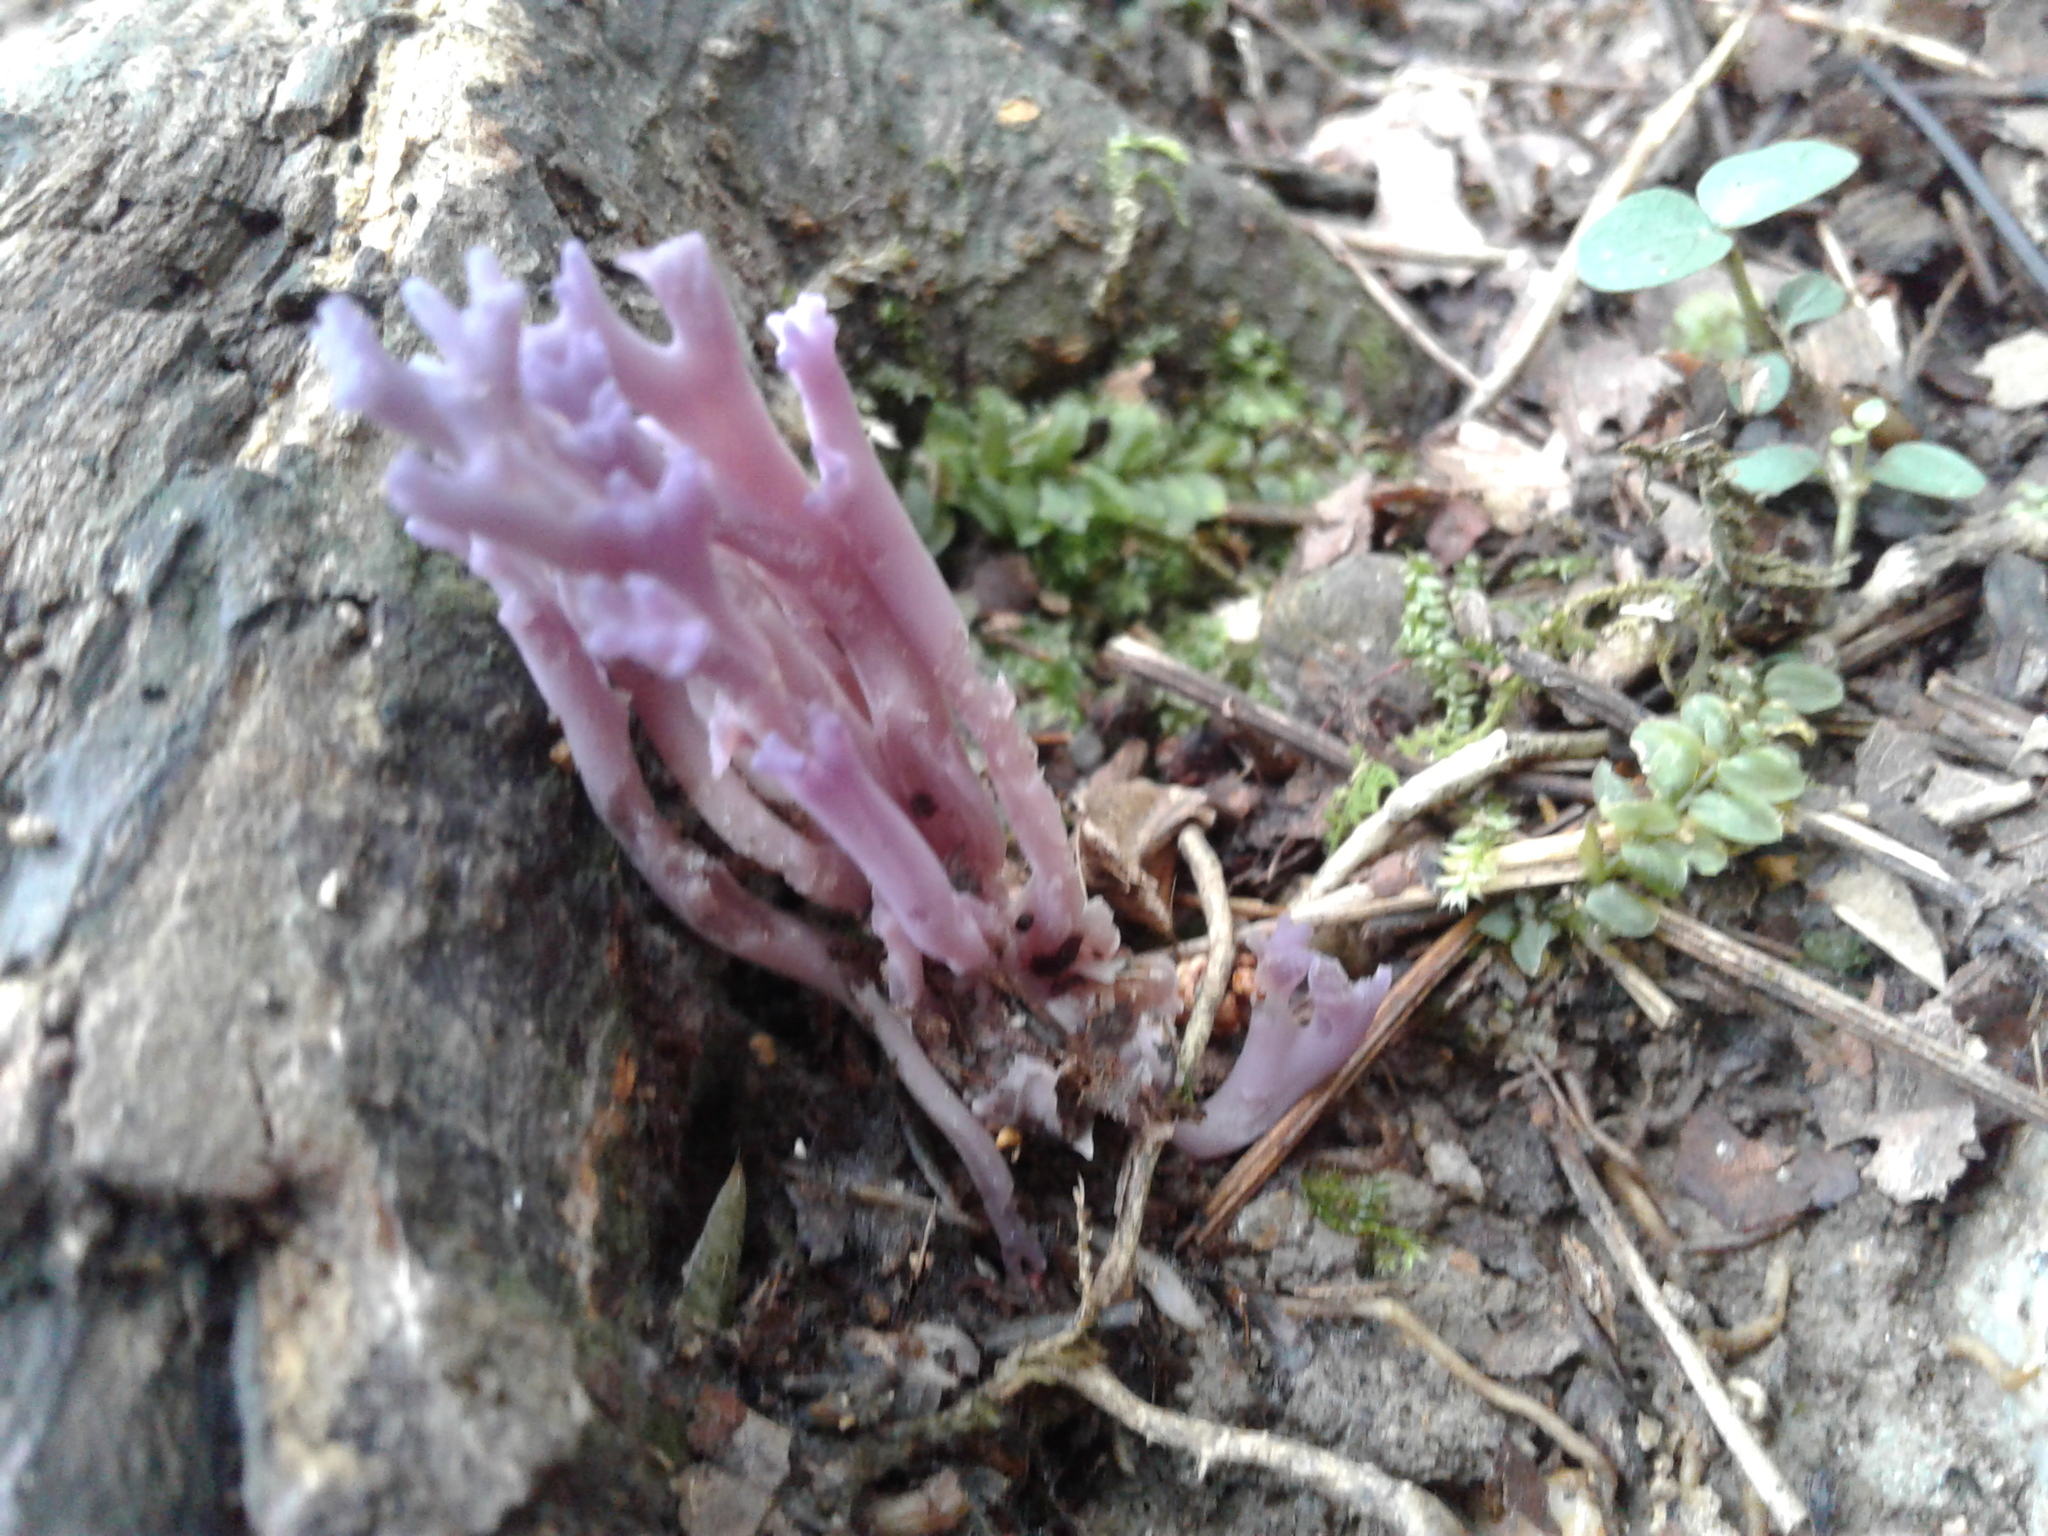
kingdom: Fungi
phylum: Basidiomycota
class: Agaricomycetes
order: Agaricales
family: Clavariaceae
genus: Clavaria
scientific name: Clavaria zollingeri
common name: Violet coral
